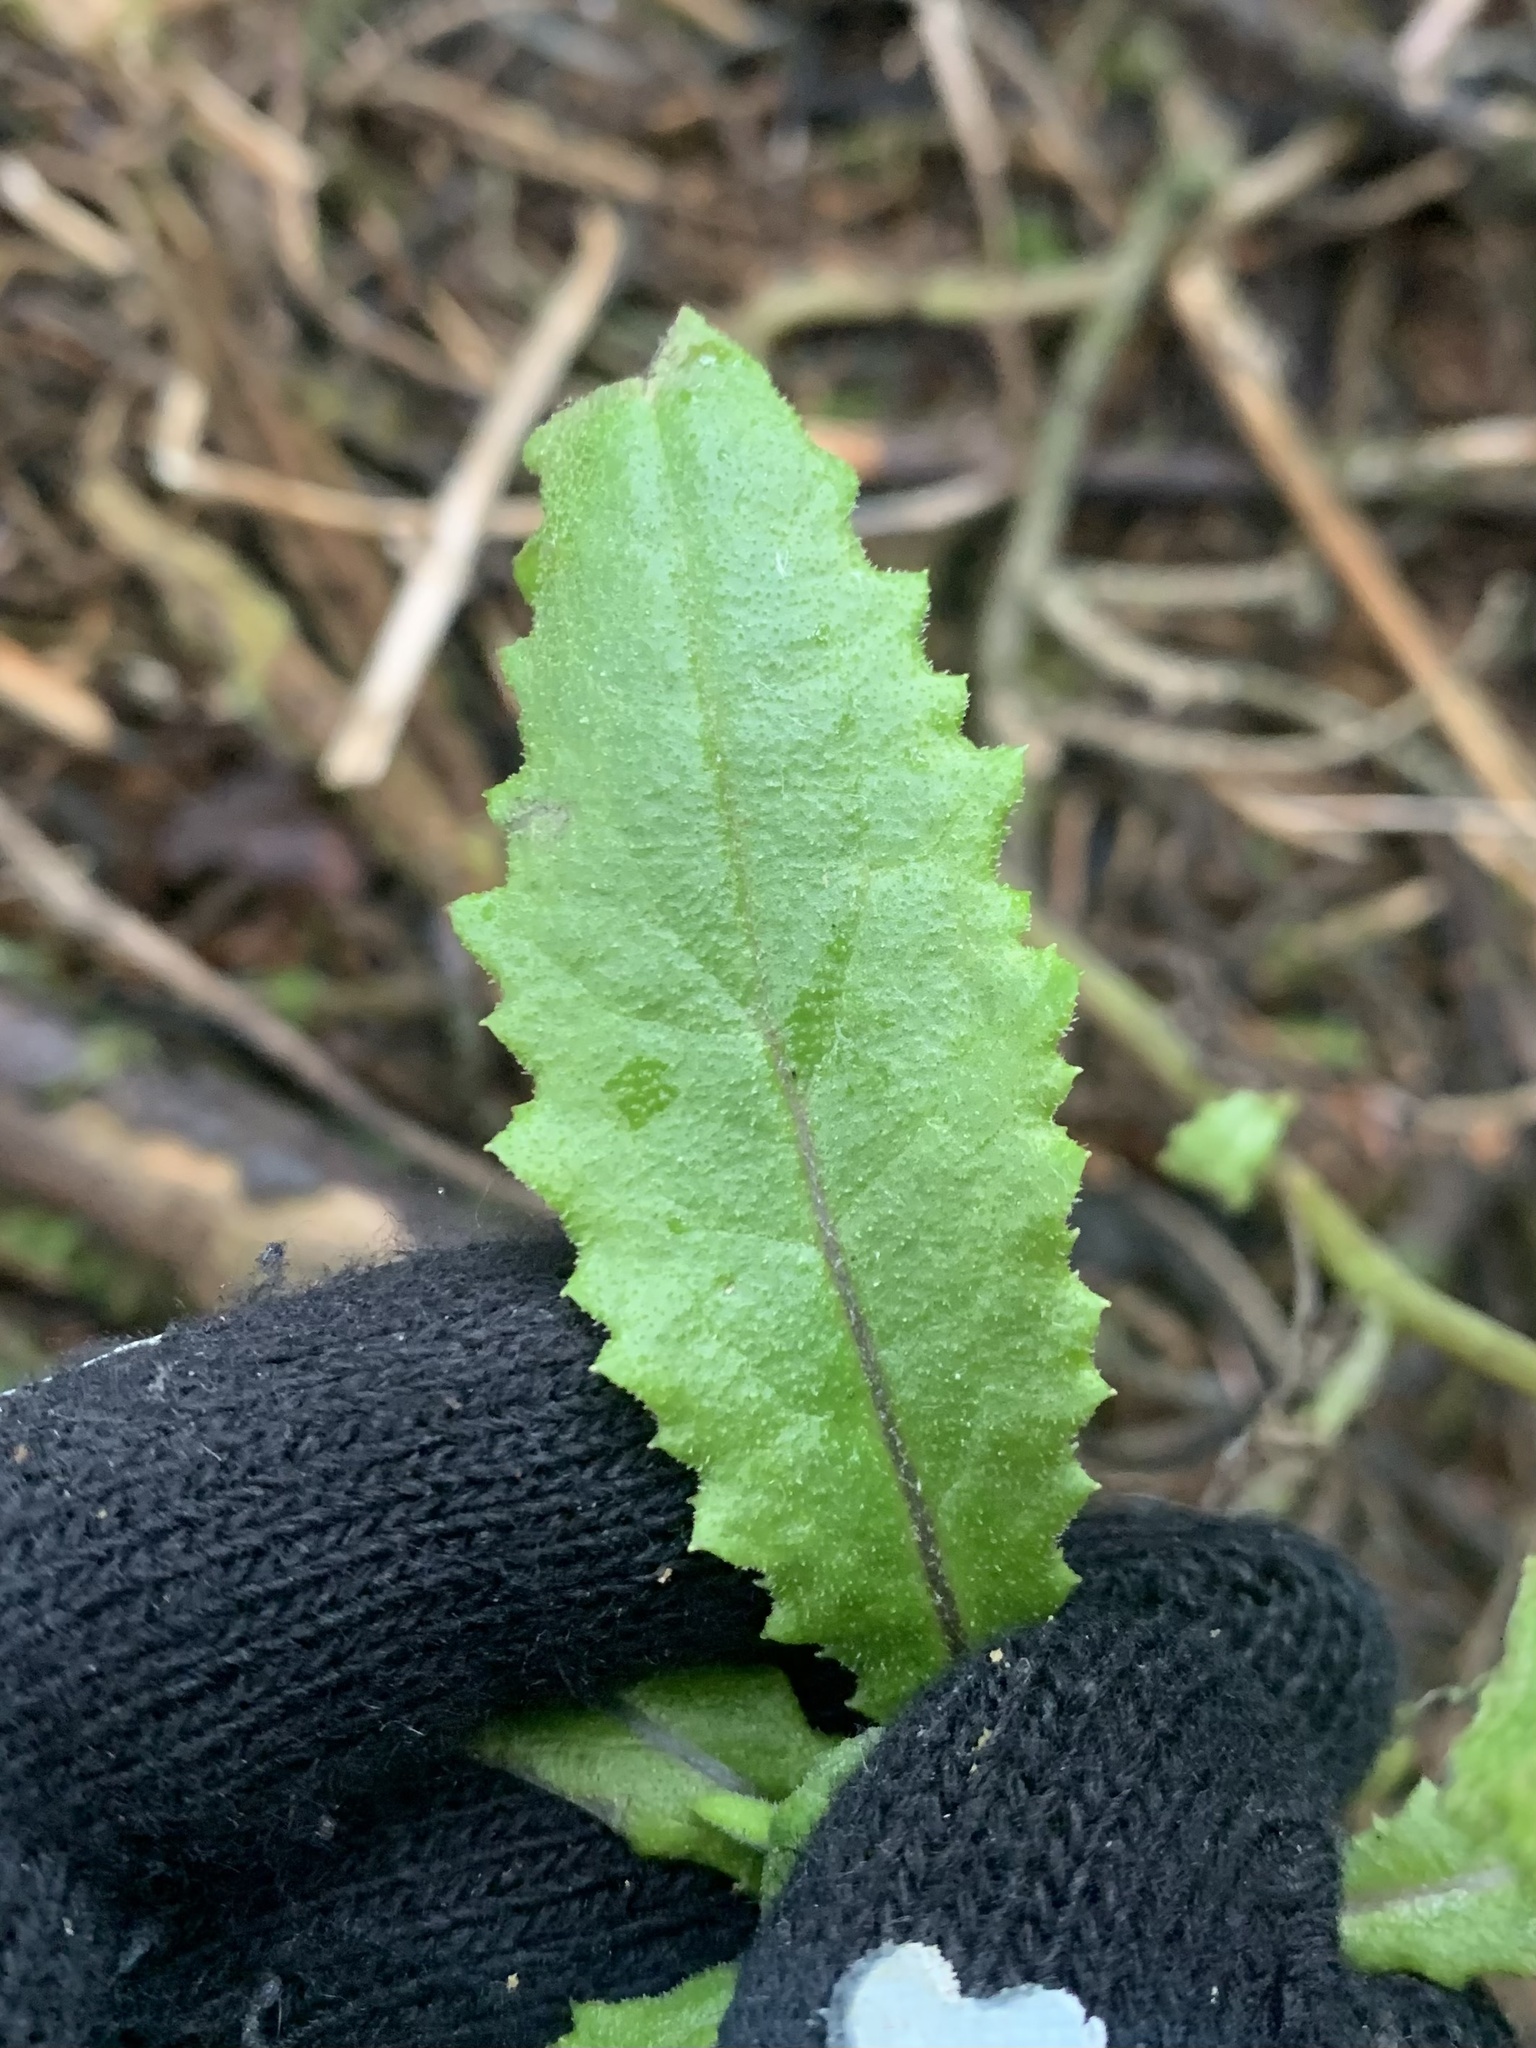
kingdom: Plantae
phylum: Tracheophyta
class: Magnoliopsida
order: Asterales
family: Asteraceae
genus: Senecio
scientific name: Senecio minimus
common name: Toothed fireweed
